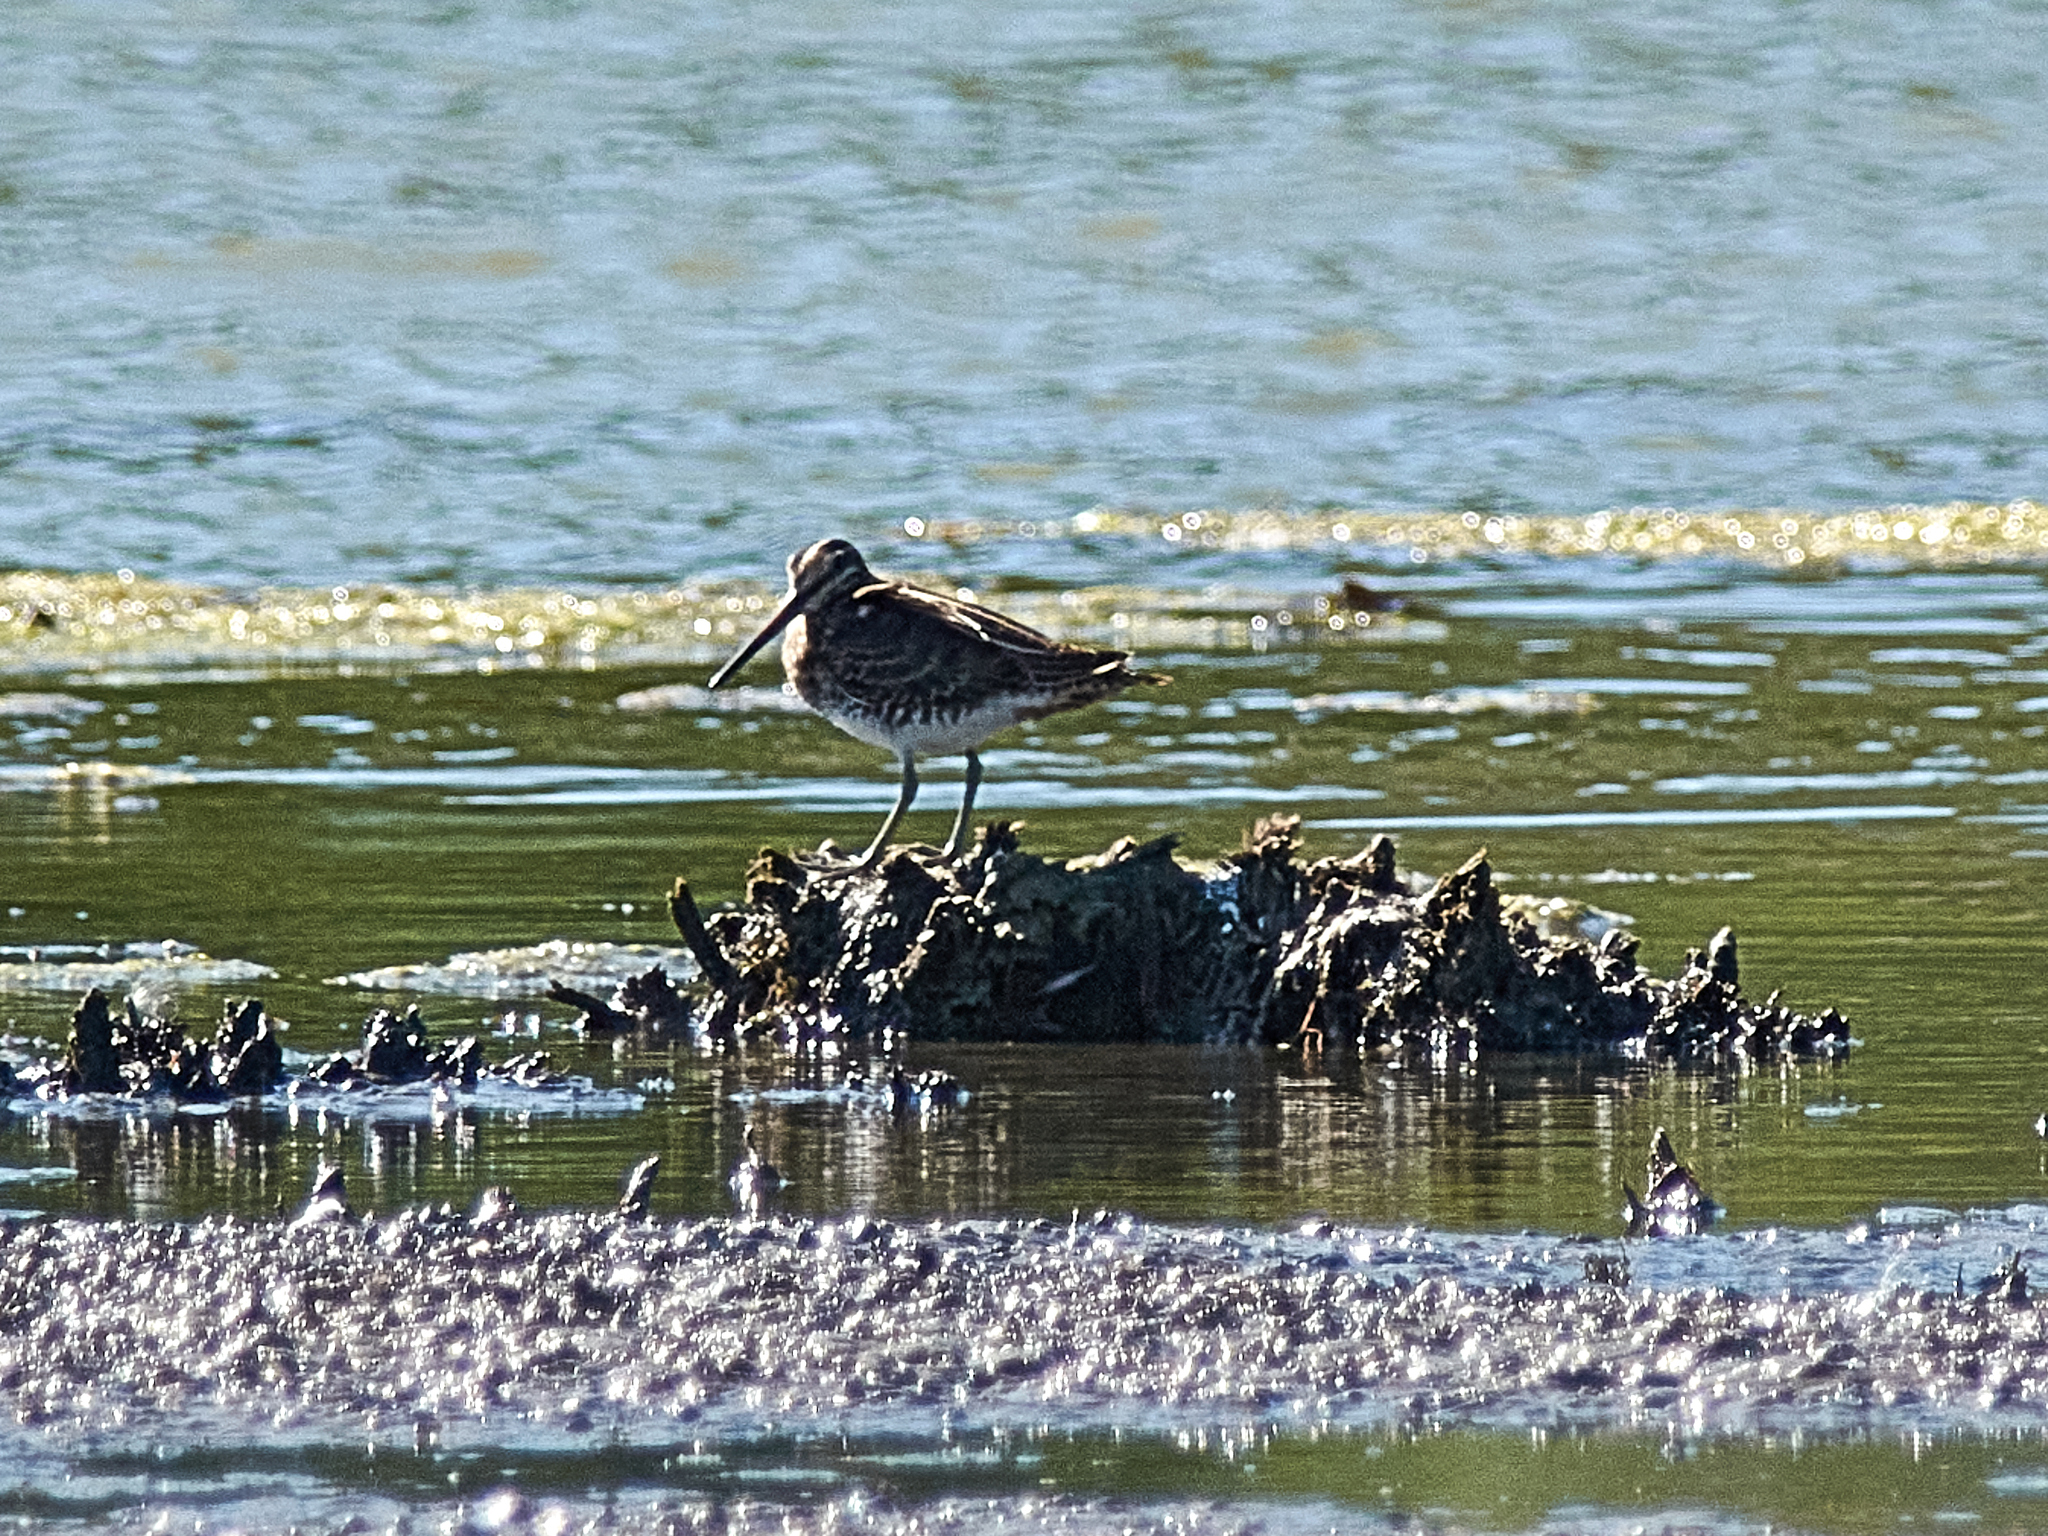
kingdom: Animalia
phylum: Chordata
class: Aves
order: Charadriiformes
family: Scolopacidae
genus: Gallinago
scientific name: Gallinago gallinago
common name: Common snipe
